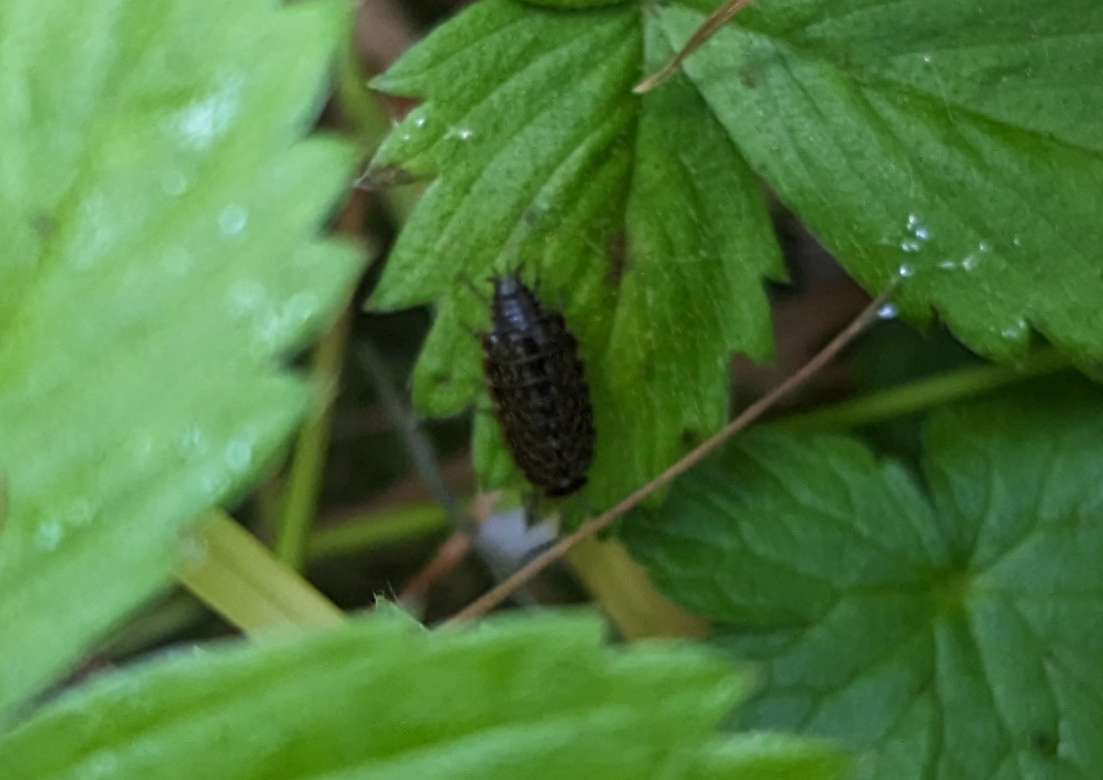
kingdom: Animalia
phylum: Arthropoda
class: Malacostraca
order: Isopoda
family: Philosciidae
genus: Philoscia
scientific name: Philoscia muscorum
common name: Common striped woodlouse
